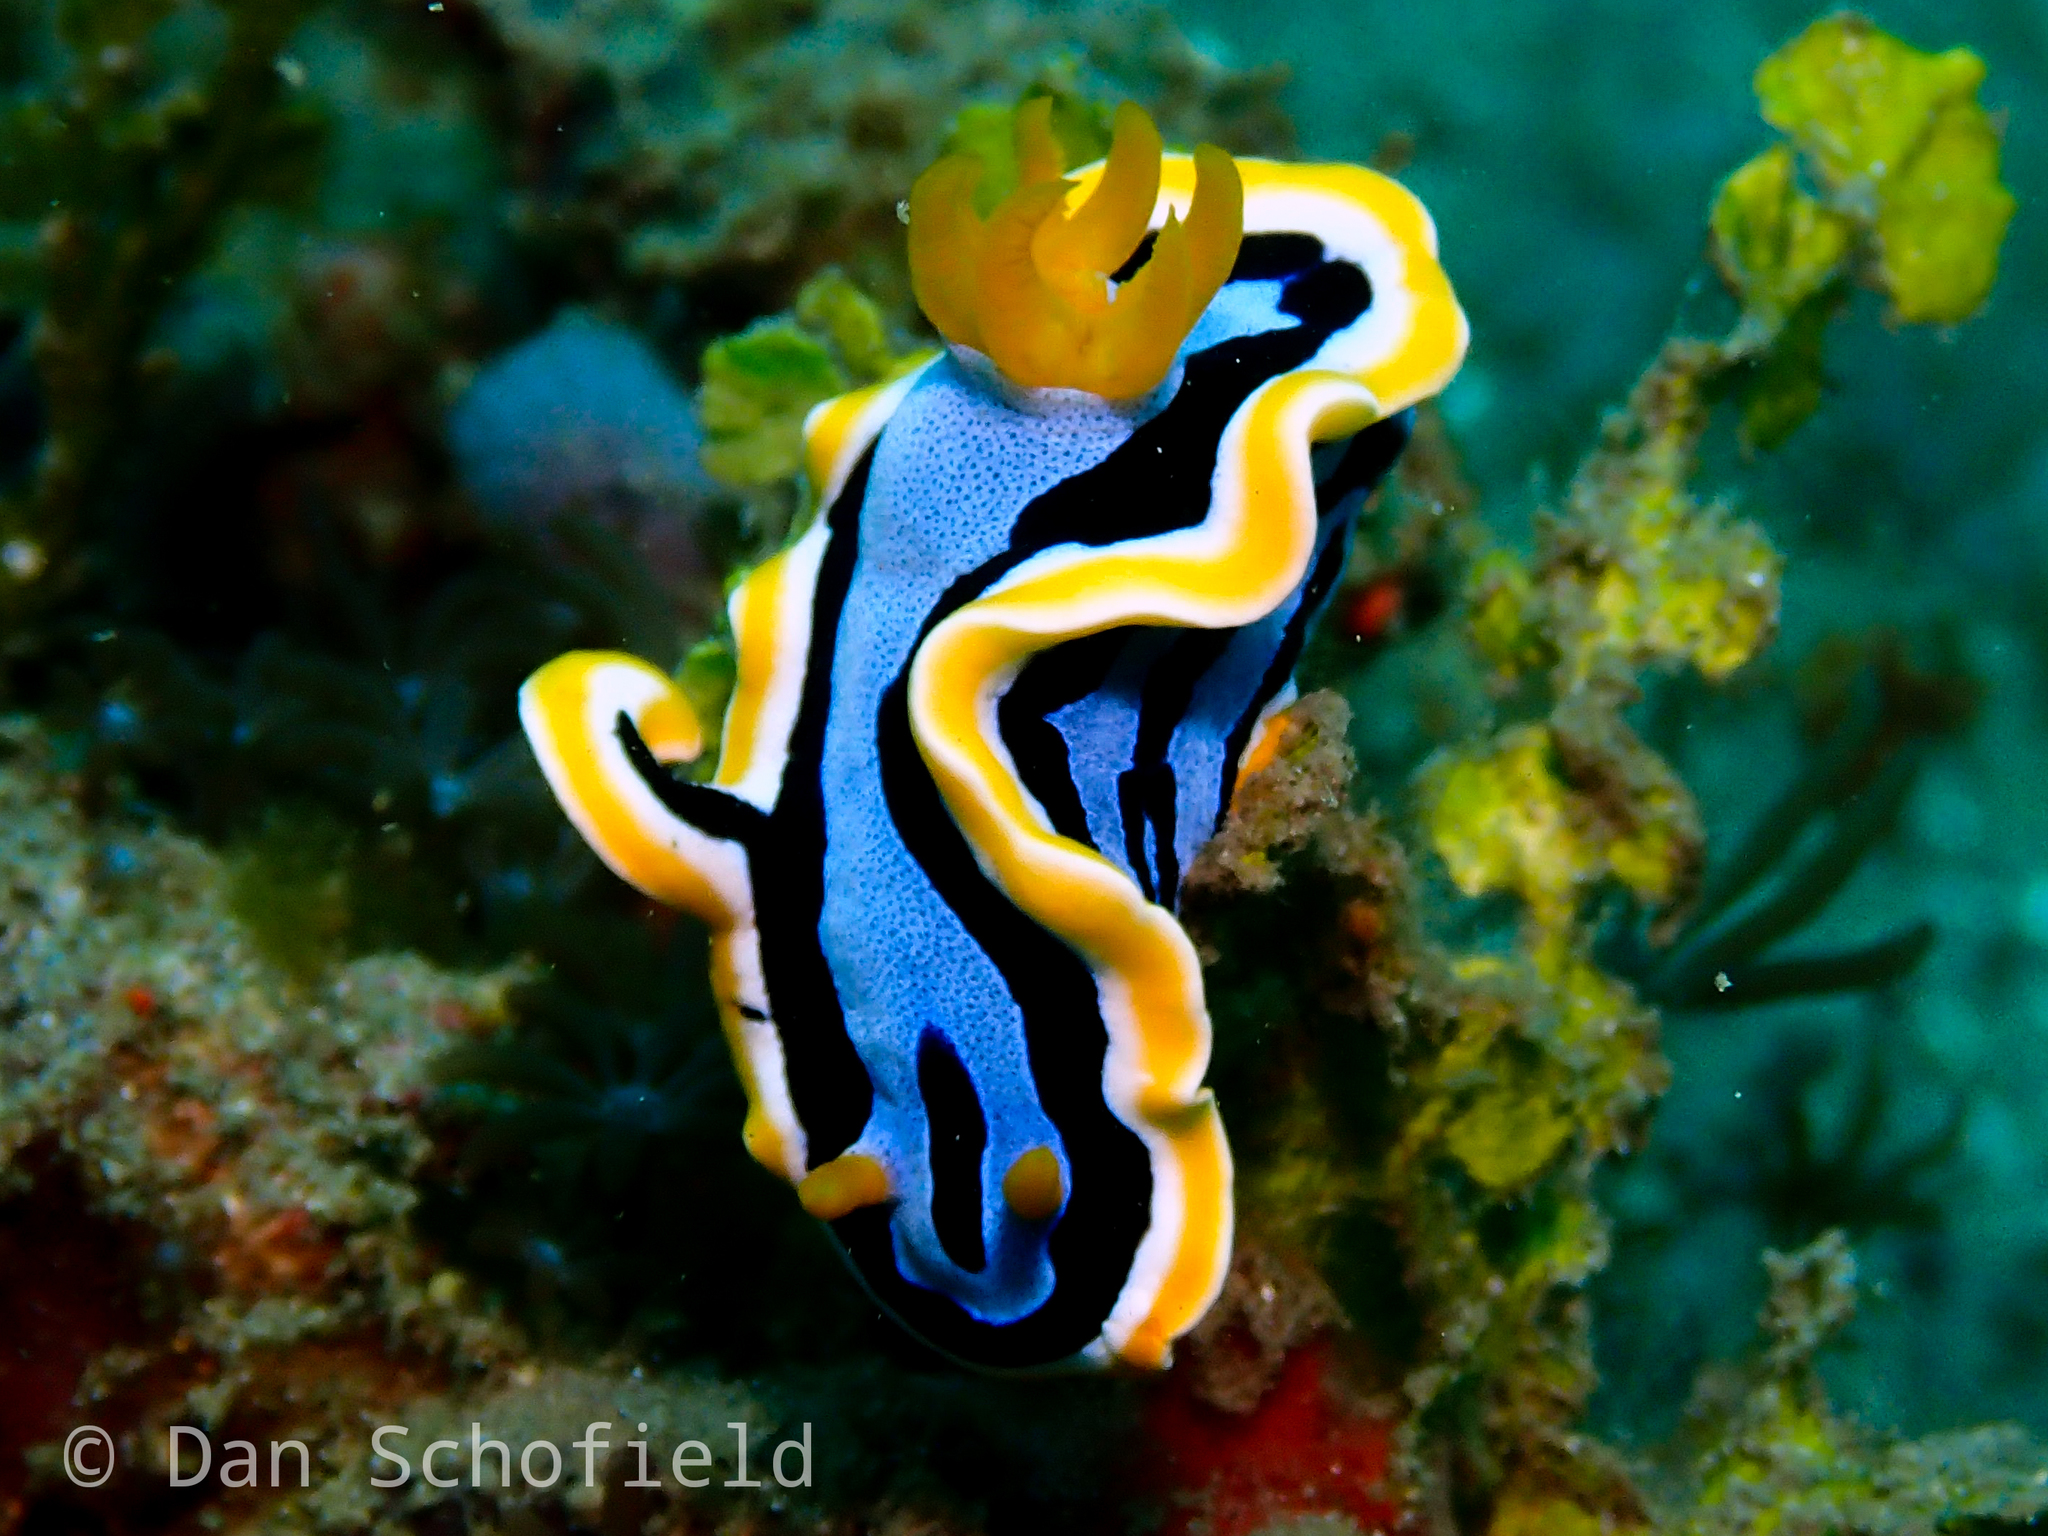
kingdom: Animalia
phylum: Mollusca
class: Gastropoda
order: Nudibranchia
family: Chromodorididae
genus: Chromodoris
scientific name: Chromodoris annae
